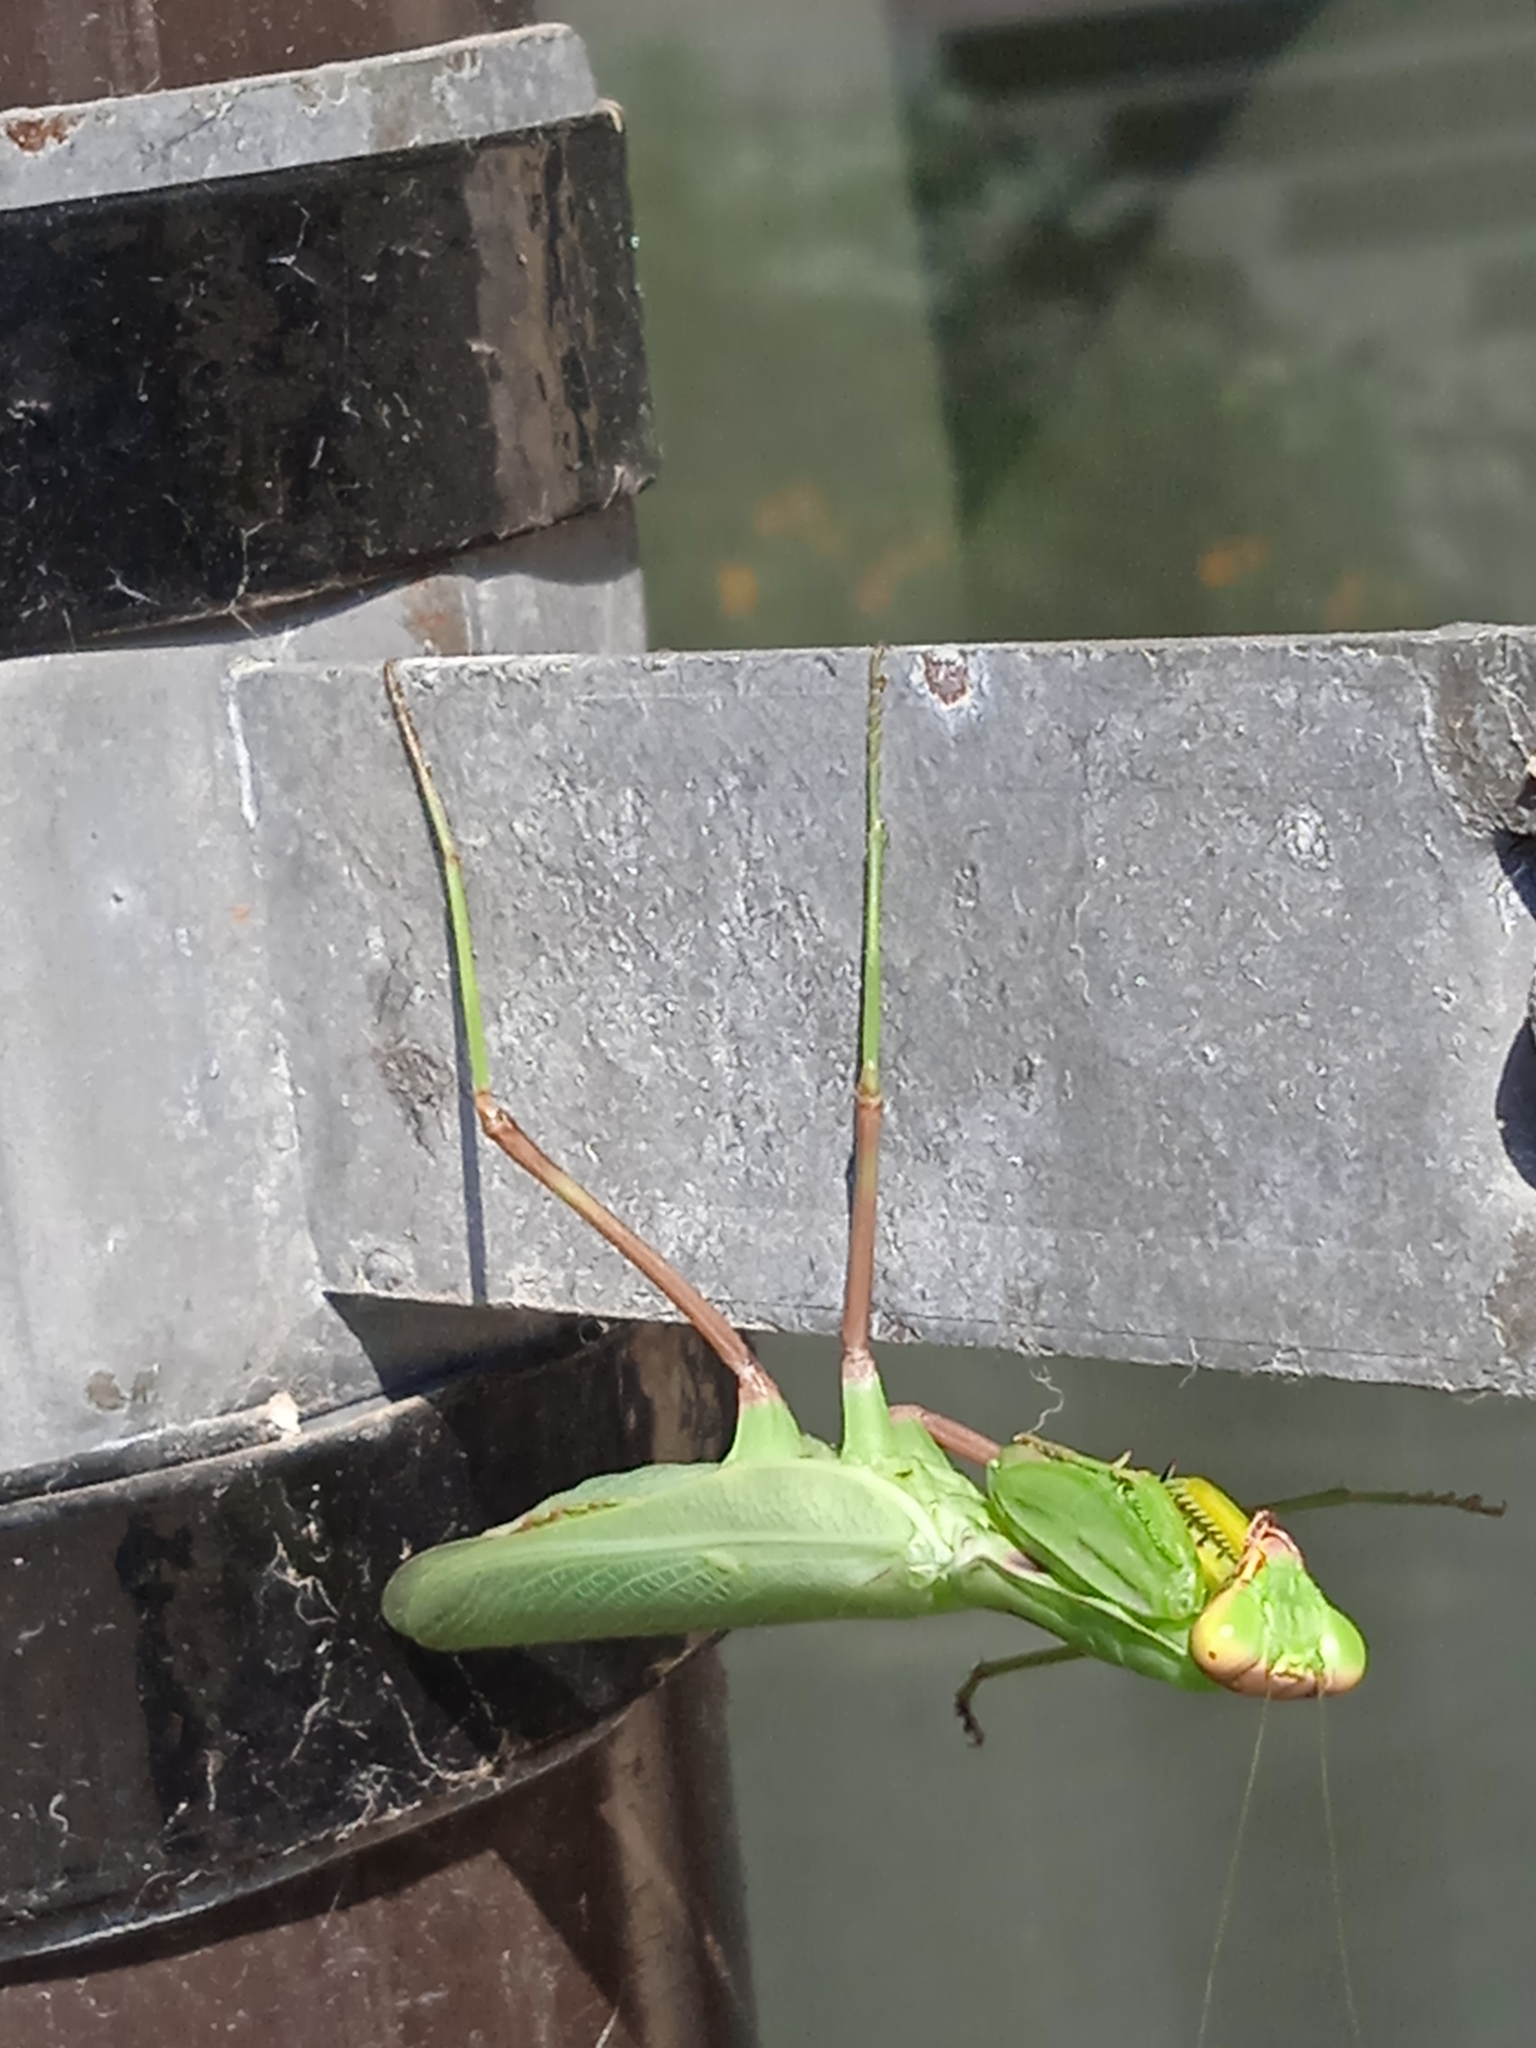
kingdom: Animalia
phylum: Arthropoda
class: Insecta
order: Mantodea
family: Mantidae
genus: Hierodula
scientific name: Hierodula transcaucasica
